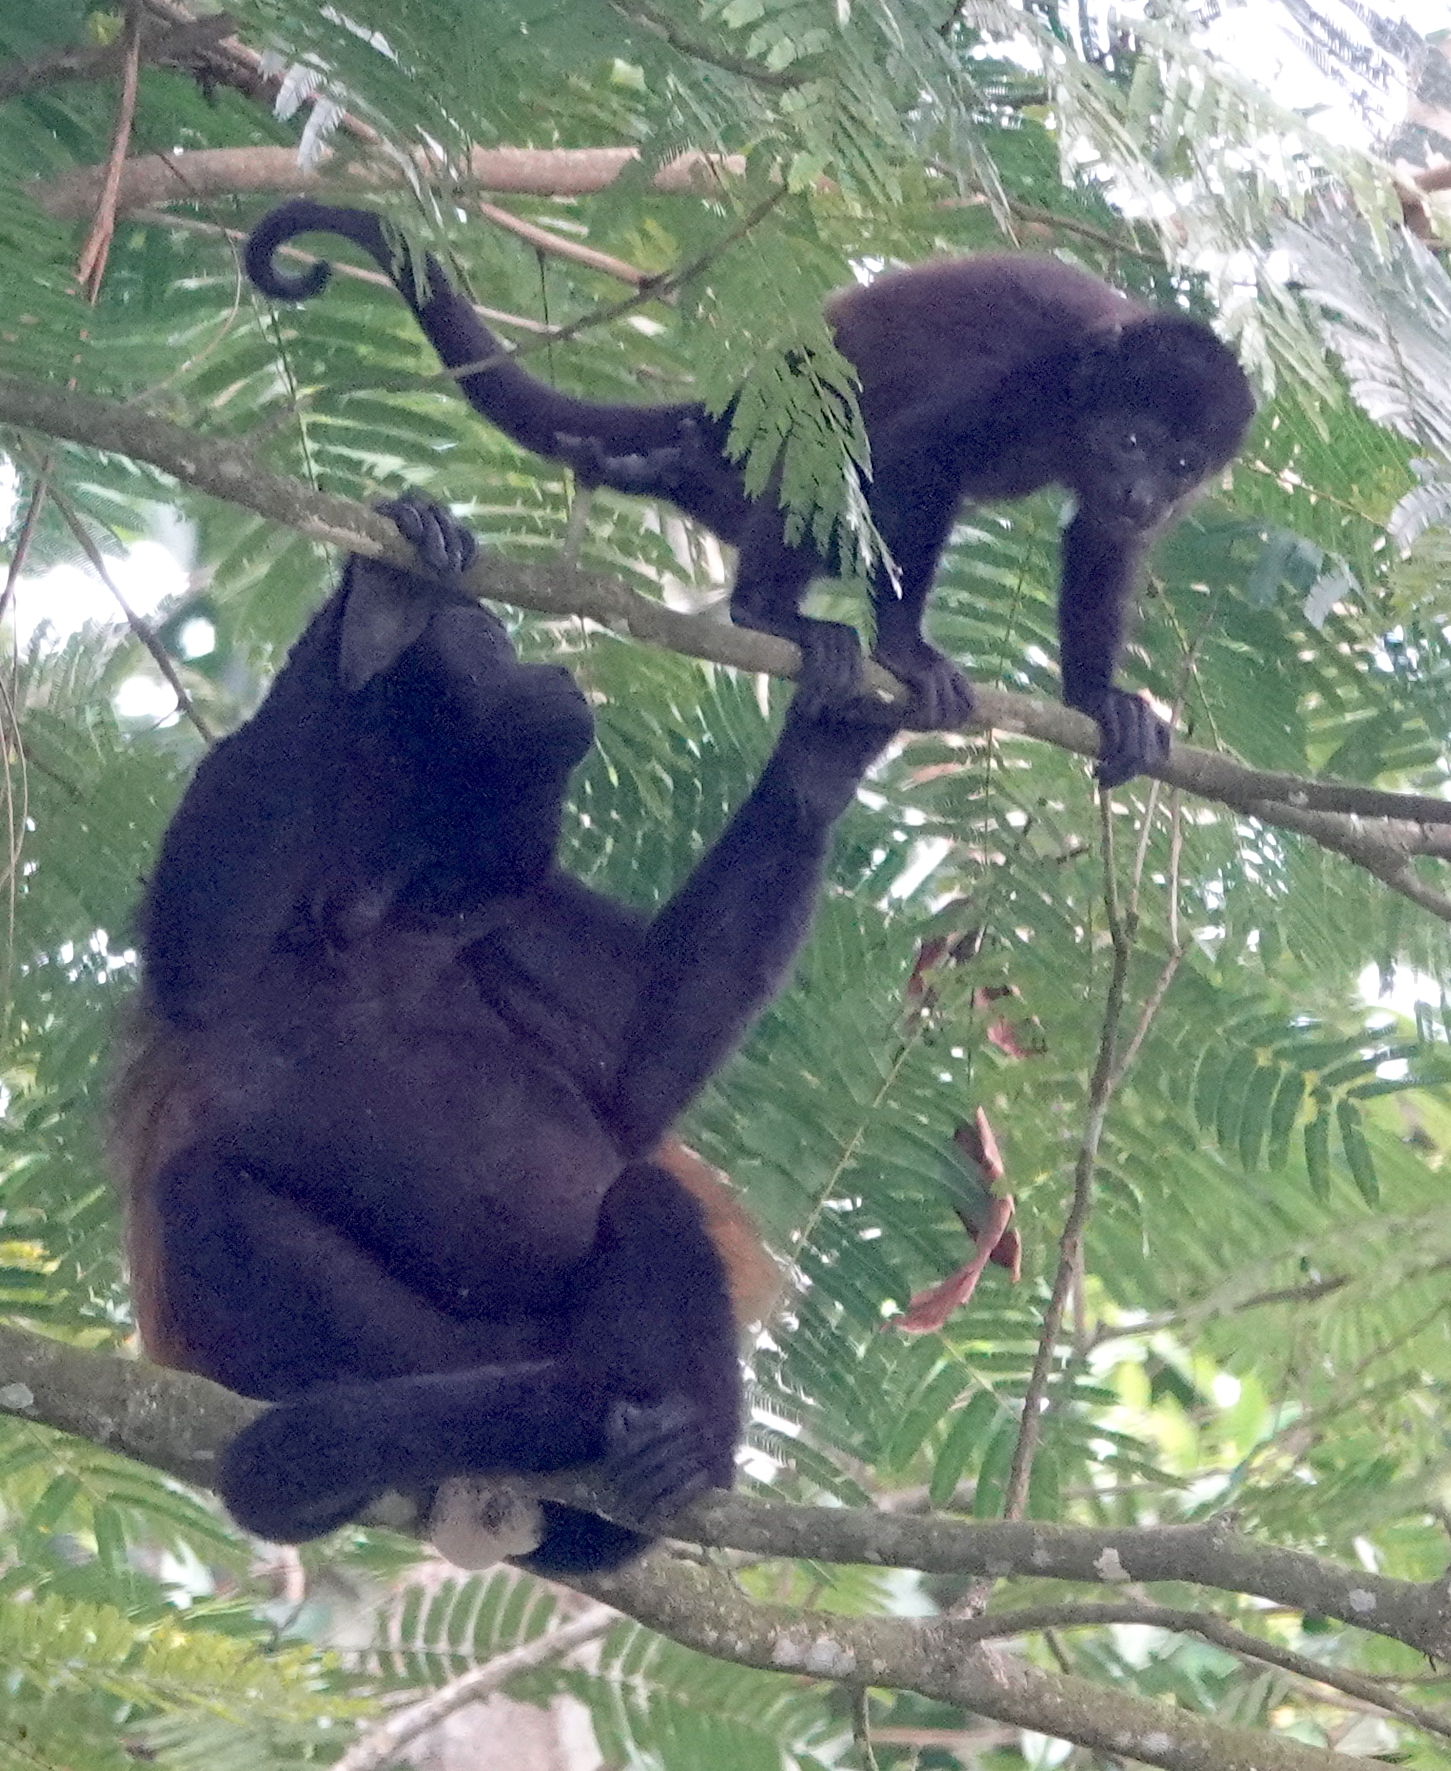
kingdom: Animalia
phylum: Chordata
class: Mammalia
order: Primates
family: Atelidae
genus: Alouatta
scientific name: Alouatta palliata
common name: Mantled howler
